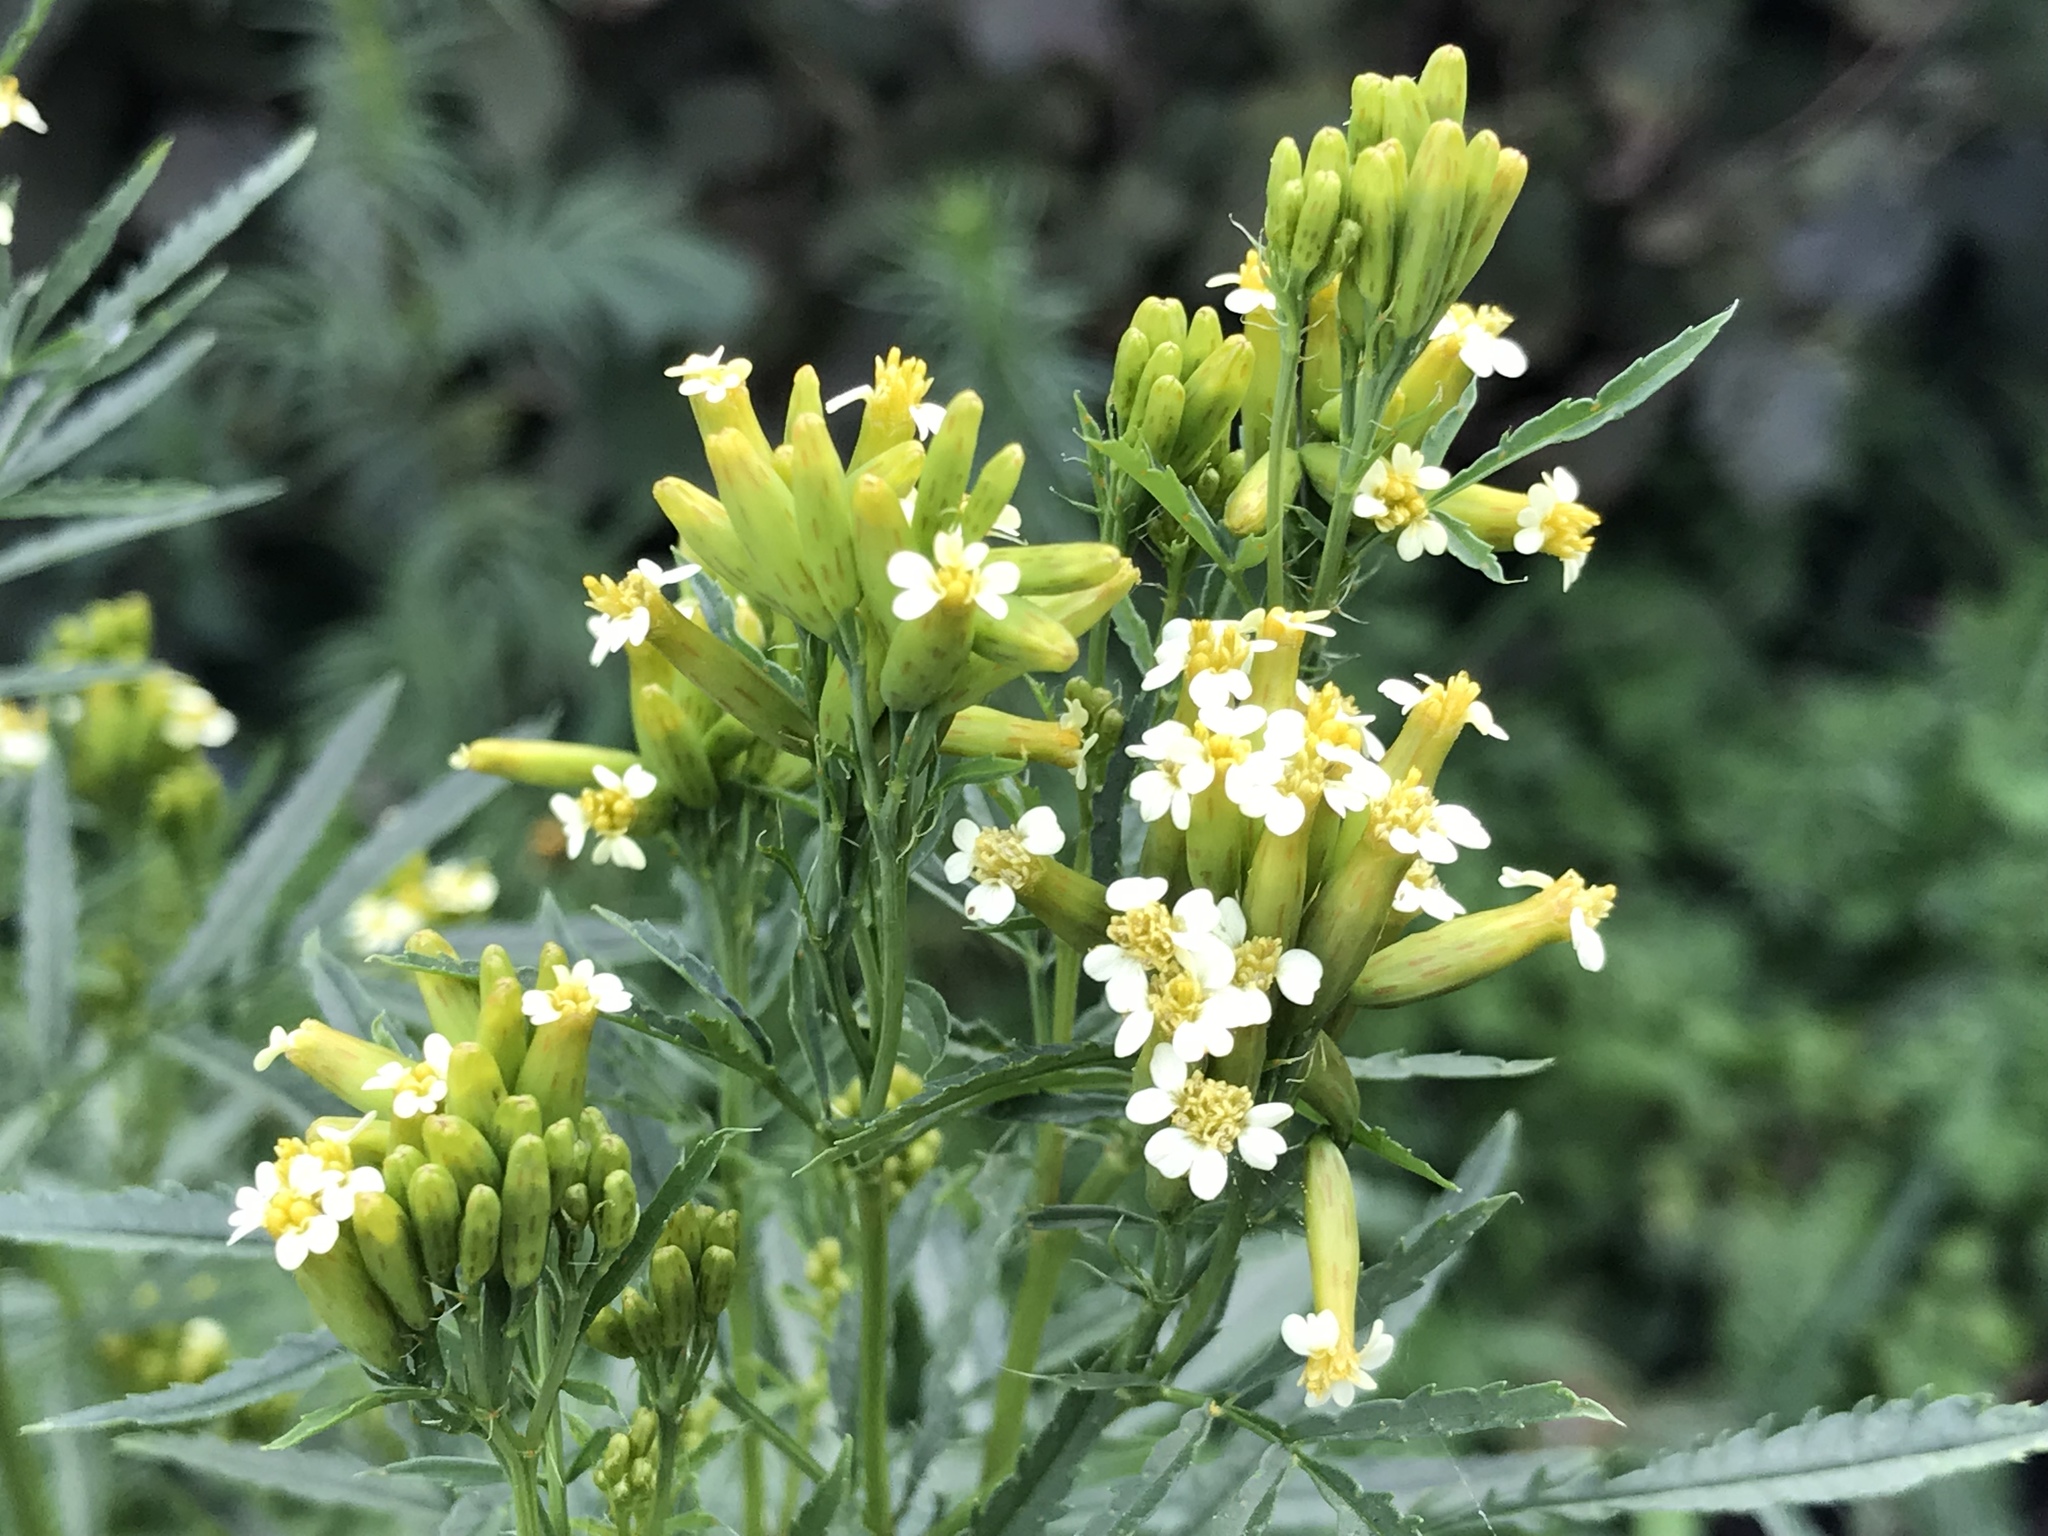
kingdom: Plantae
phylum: Tracheophyta
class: Magnoliopsida
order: Asterales
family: Asteraceae
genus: Tagetes
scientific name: Tagetes minuta
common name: Muster john henry
